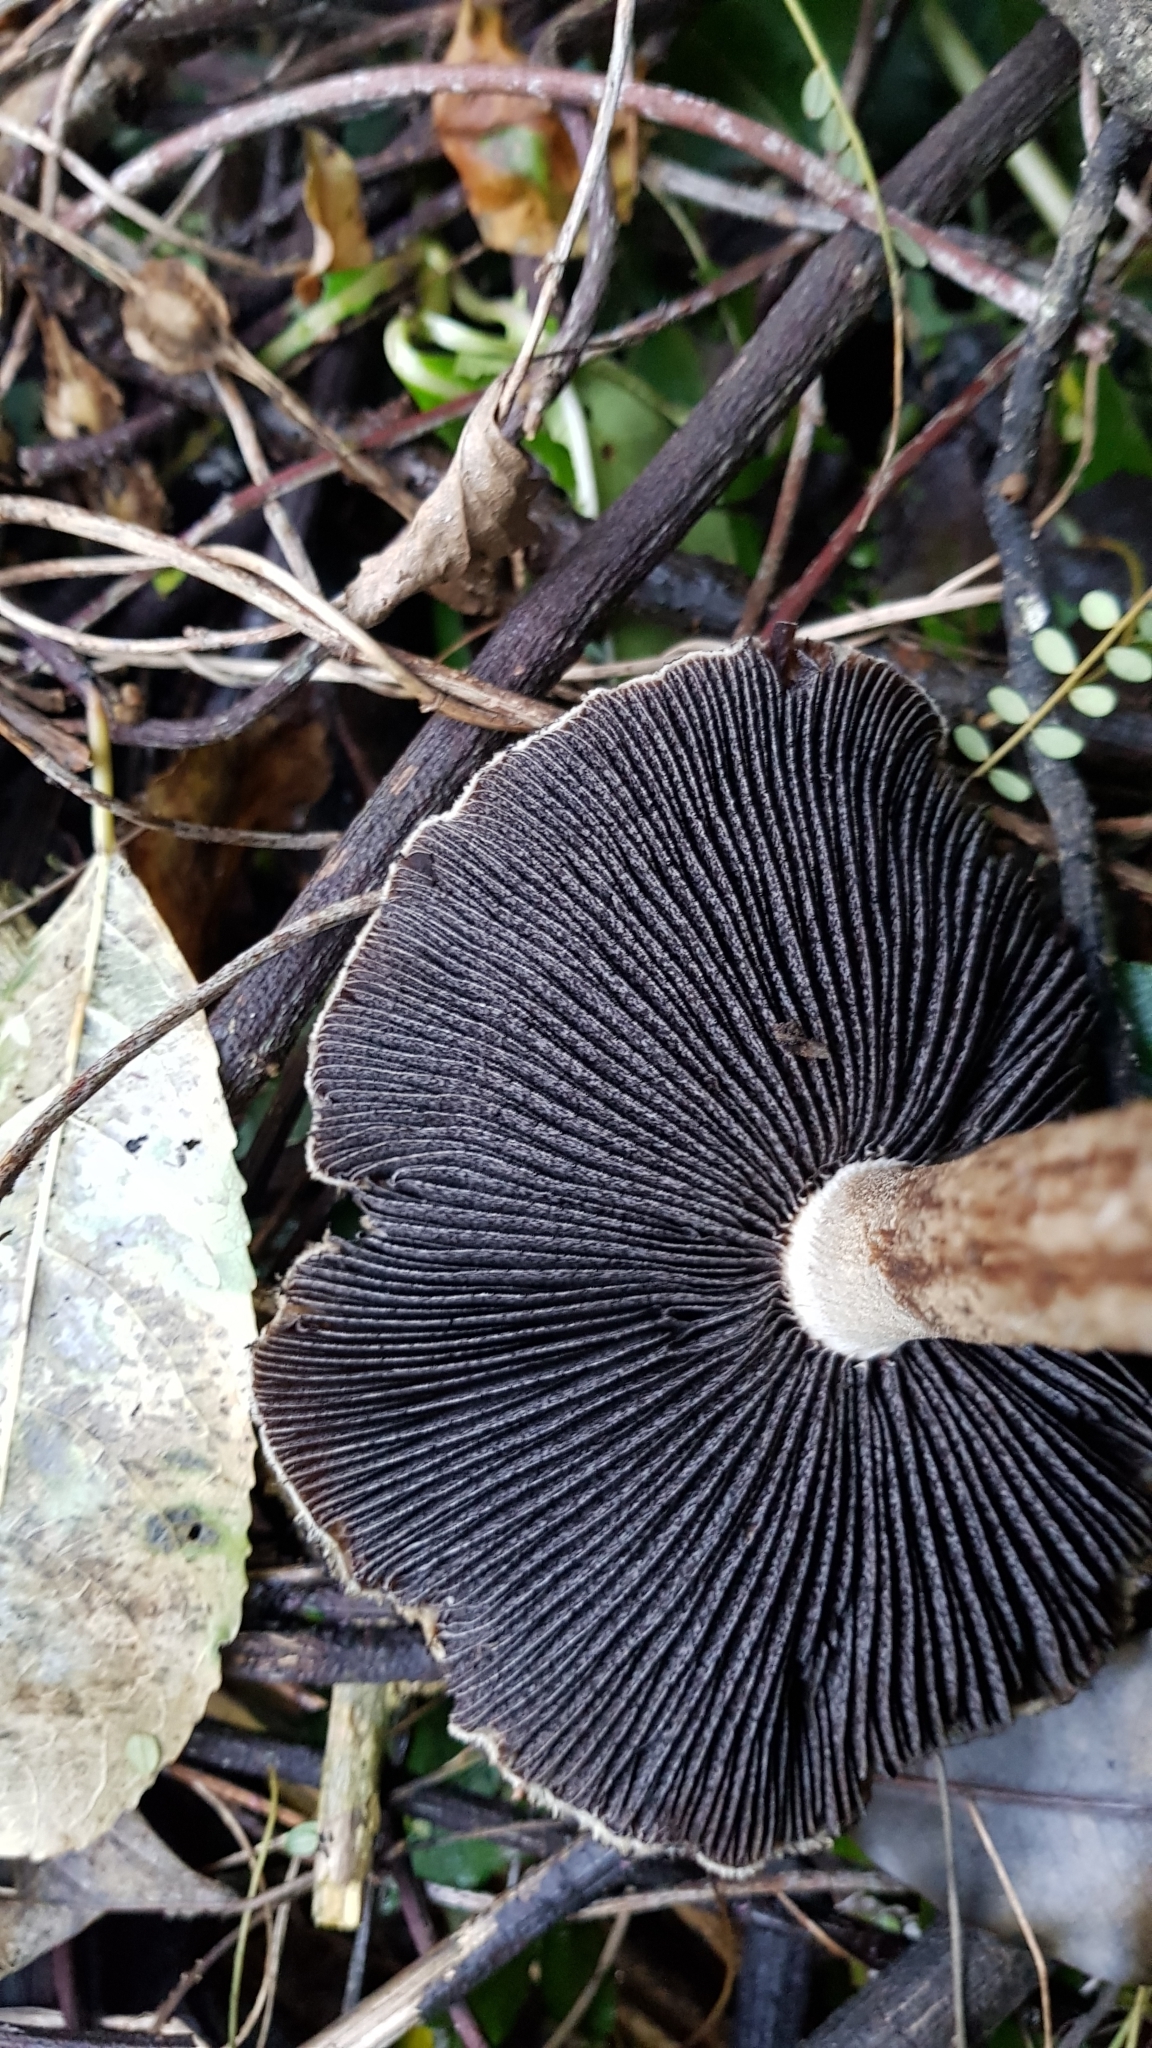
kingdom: Fungi
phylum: Basidiomycota
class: Agaricomycetes
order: Agaricales
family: Psathyrellaceae
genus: Lacrymaria
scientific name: Lacrymaria lacrymabunda
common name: Weeping widow
